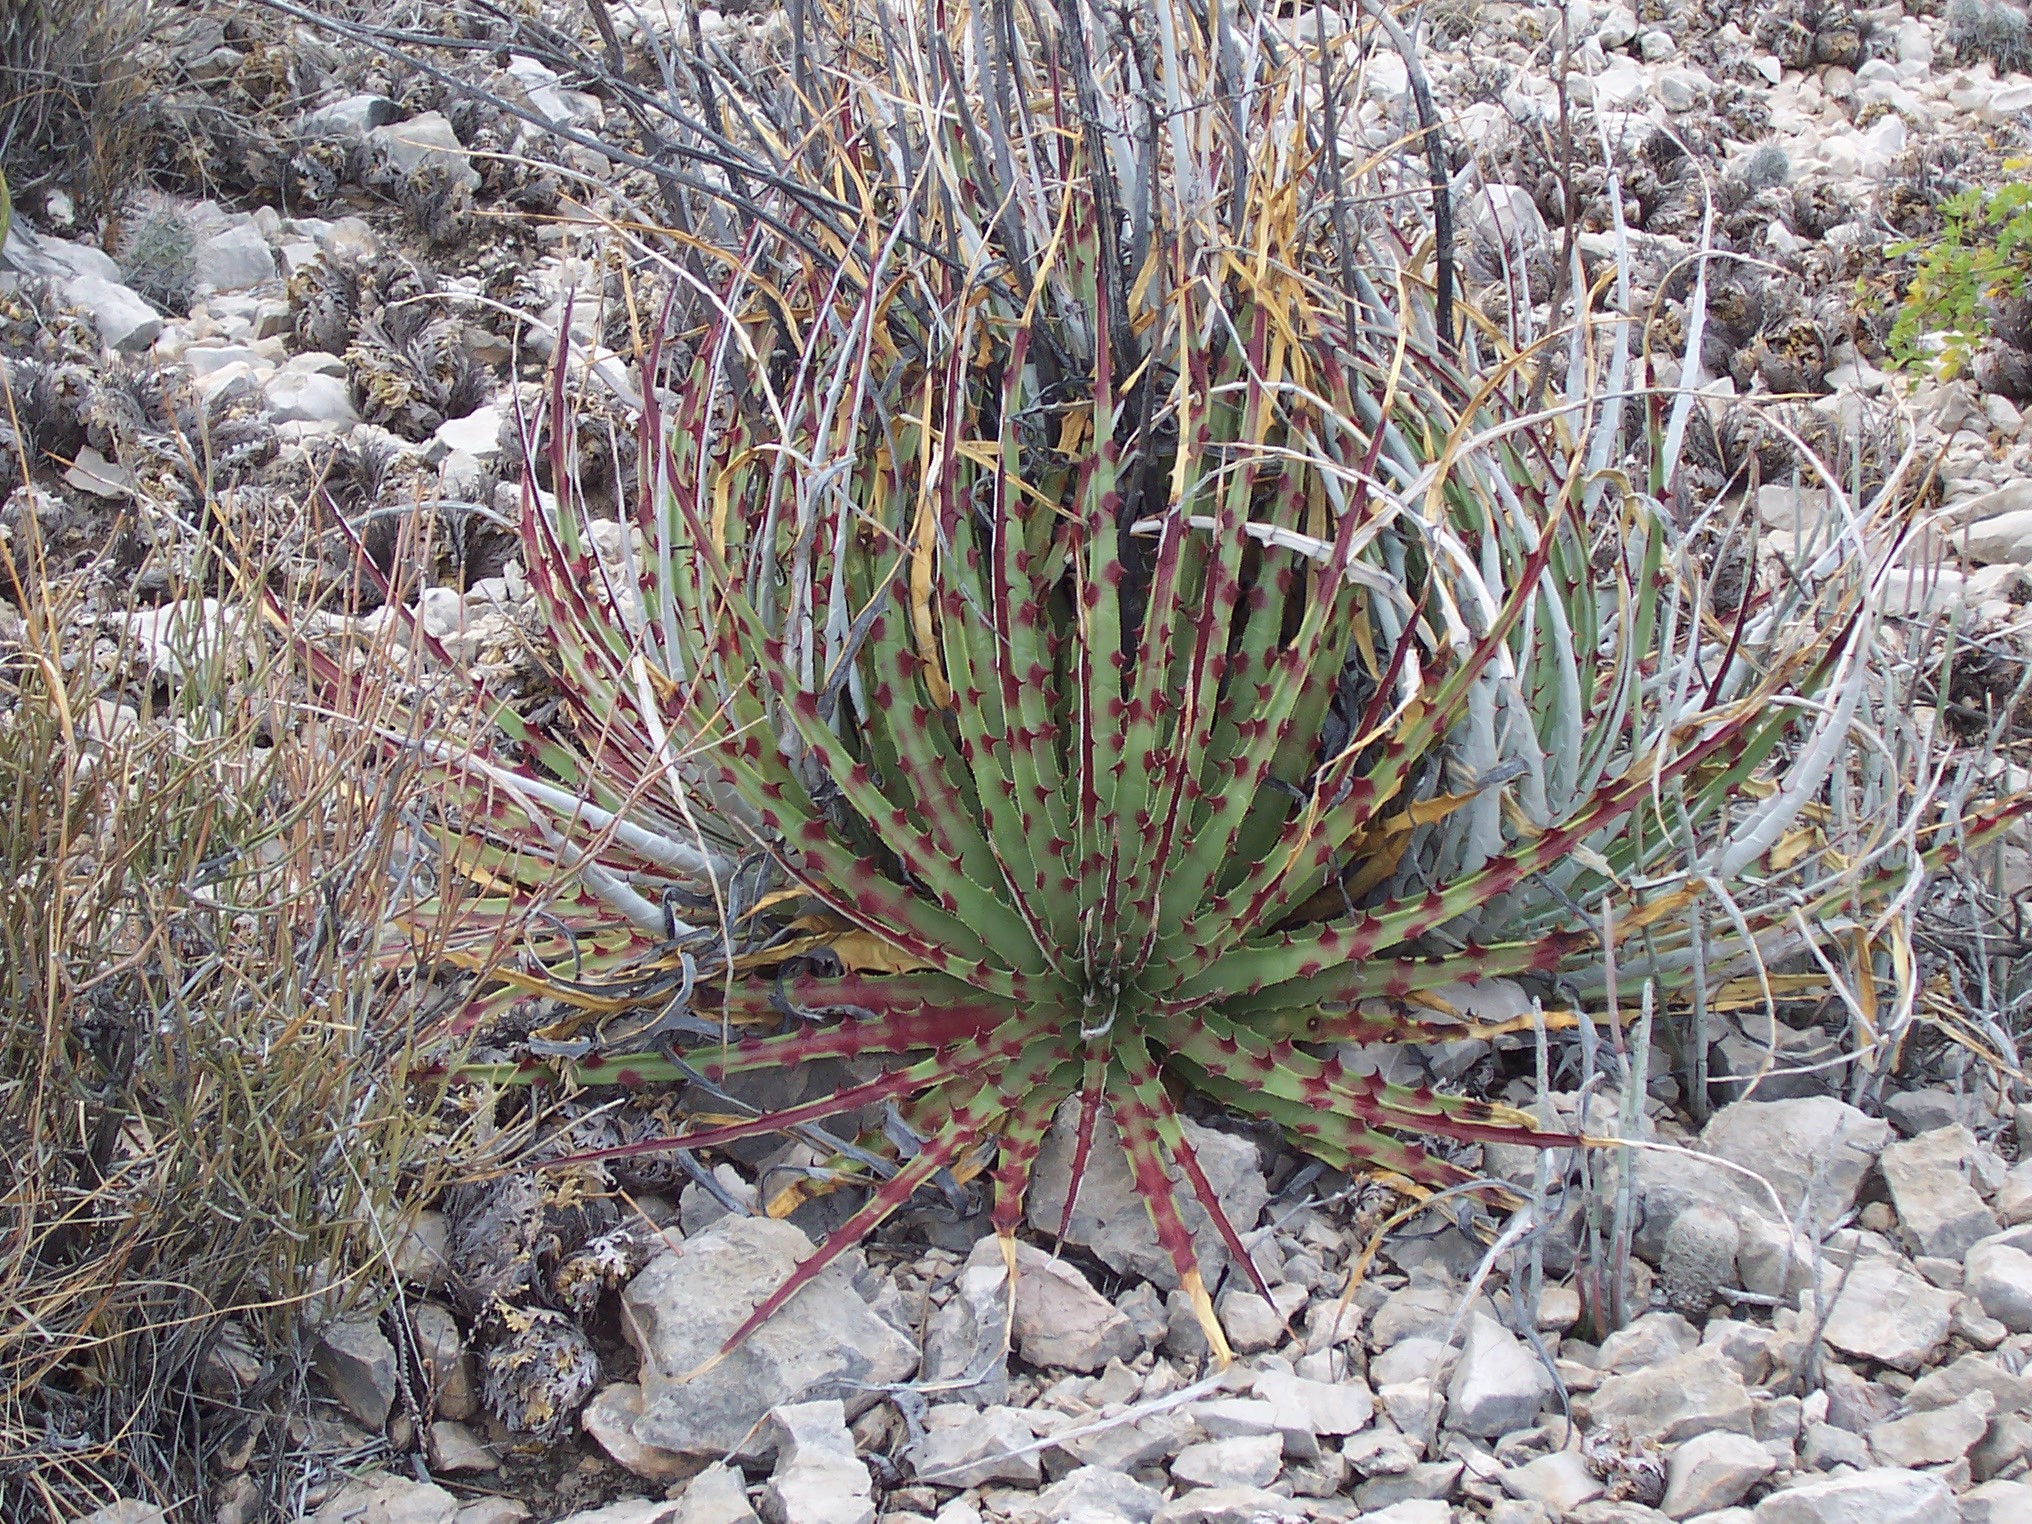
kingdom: Plantae
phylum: Tracheophyta
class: Liliopsida
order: Poales
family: Bromeliaceae
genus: Hechtia
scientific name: Hechtia texensis
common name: False agave
